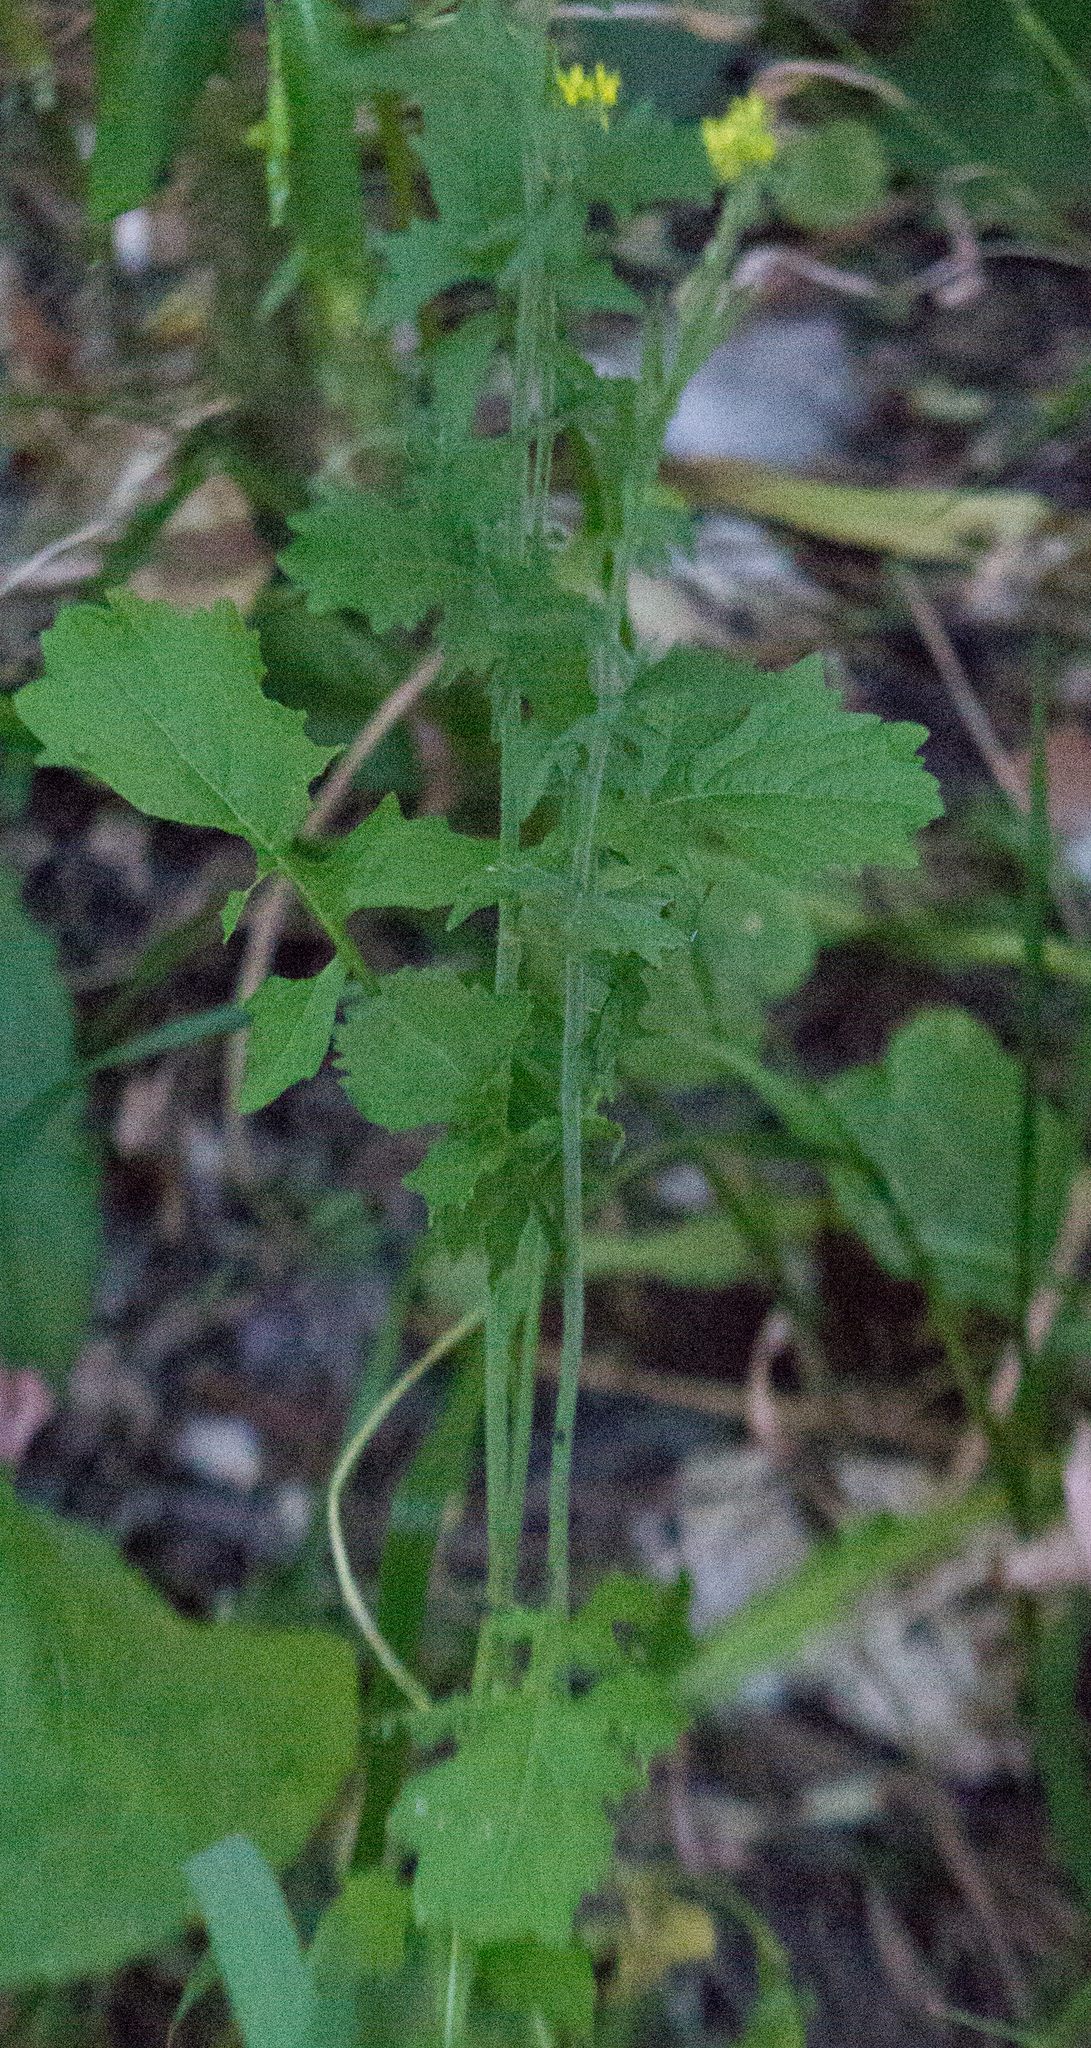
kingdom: Plantae
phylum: Tracheophyta
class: Magnoliopsida
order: Brassicales
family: Brassicaceae
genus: Sisymbrium
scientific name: Sisymbrium officinale
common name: Hedge mustard
